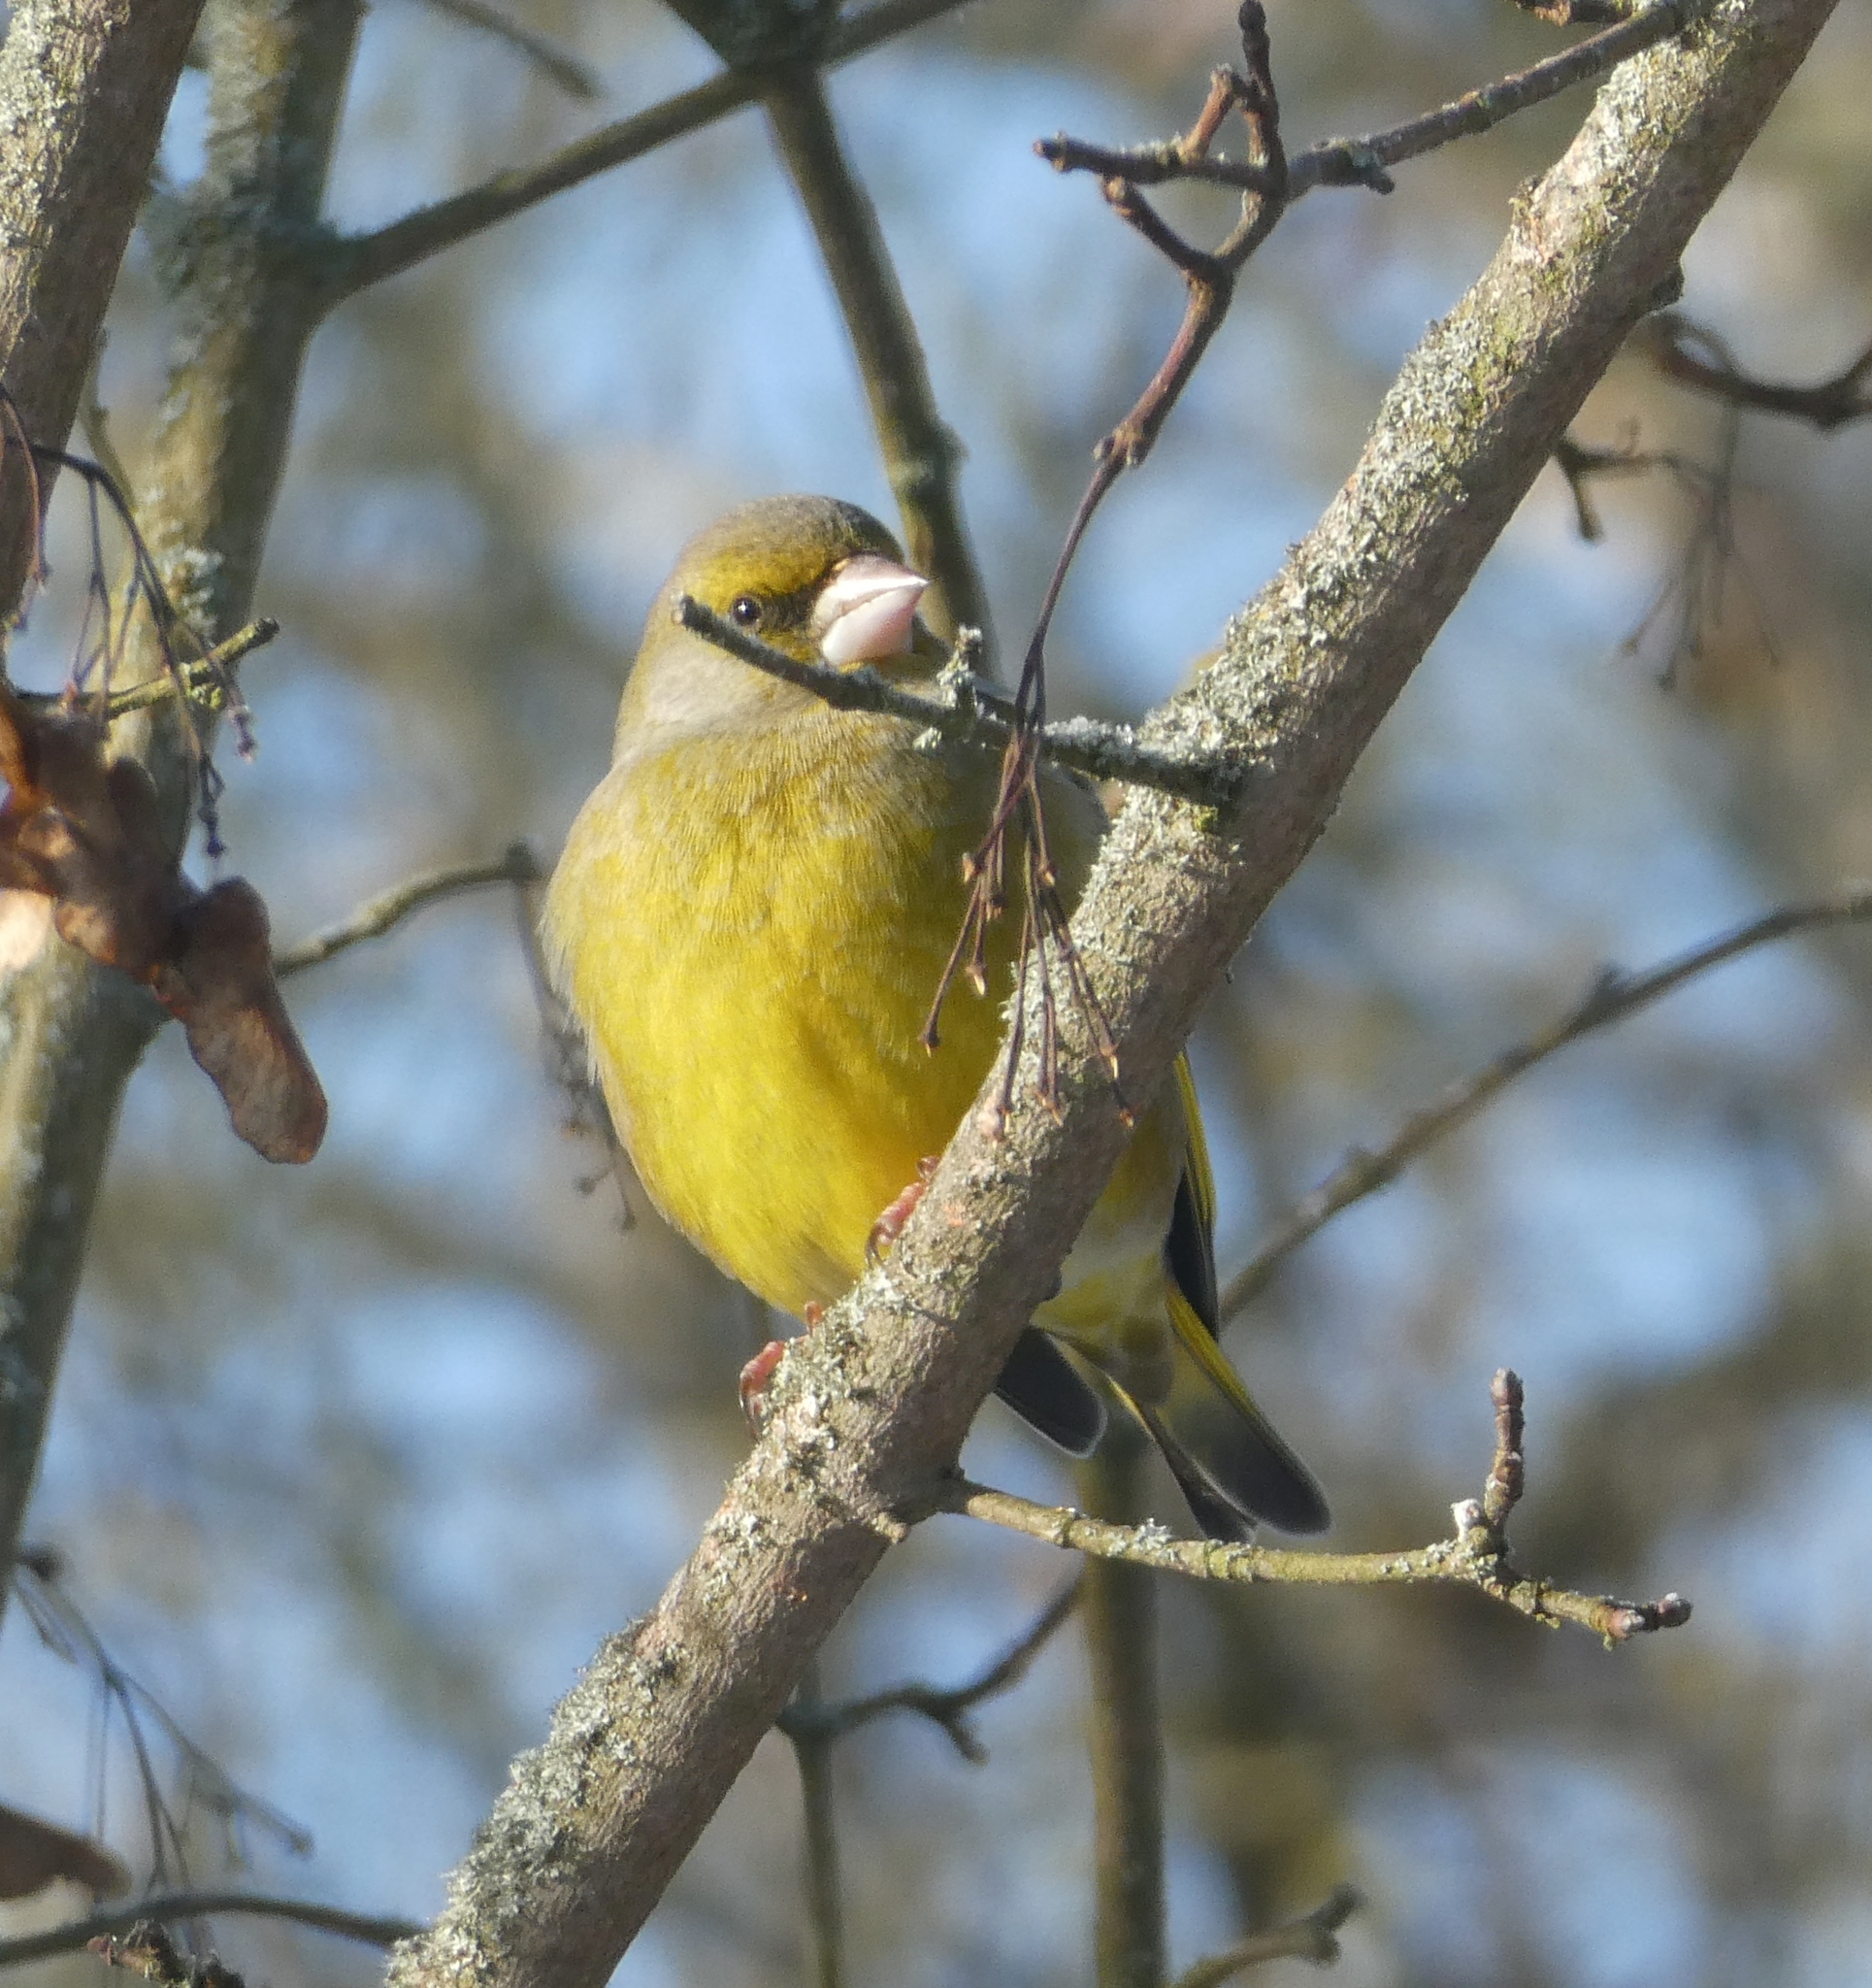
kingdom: Plantae
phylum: Tracheophyta
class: Liliopsida
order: Poales
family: Poaceae
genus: Chloris
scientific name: Chloris chloris
